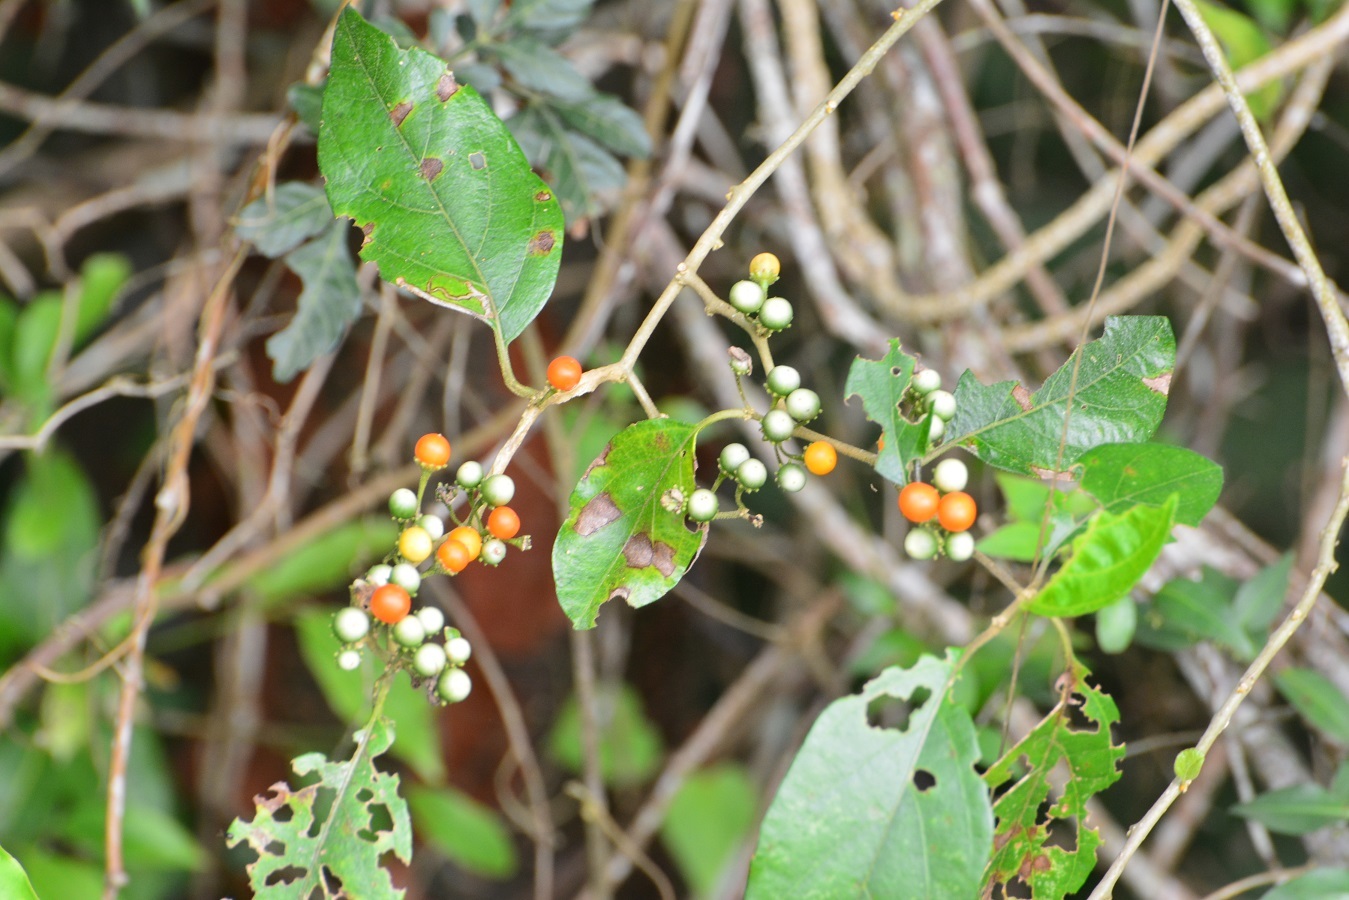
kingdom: Plantae
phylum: Tracheophyta
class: Magnoliopsida
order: Solanales
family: Solanaceae
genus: Lycianthes
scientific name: Lycianthes sideroxyloides
